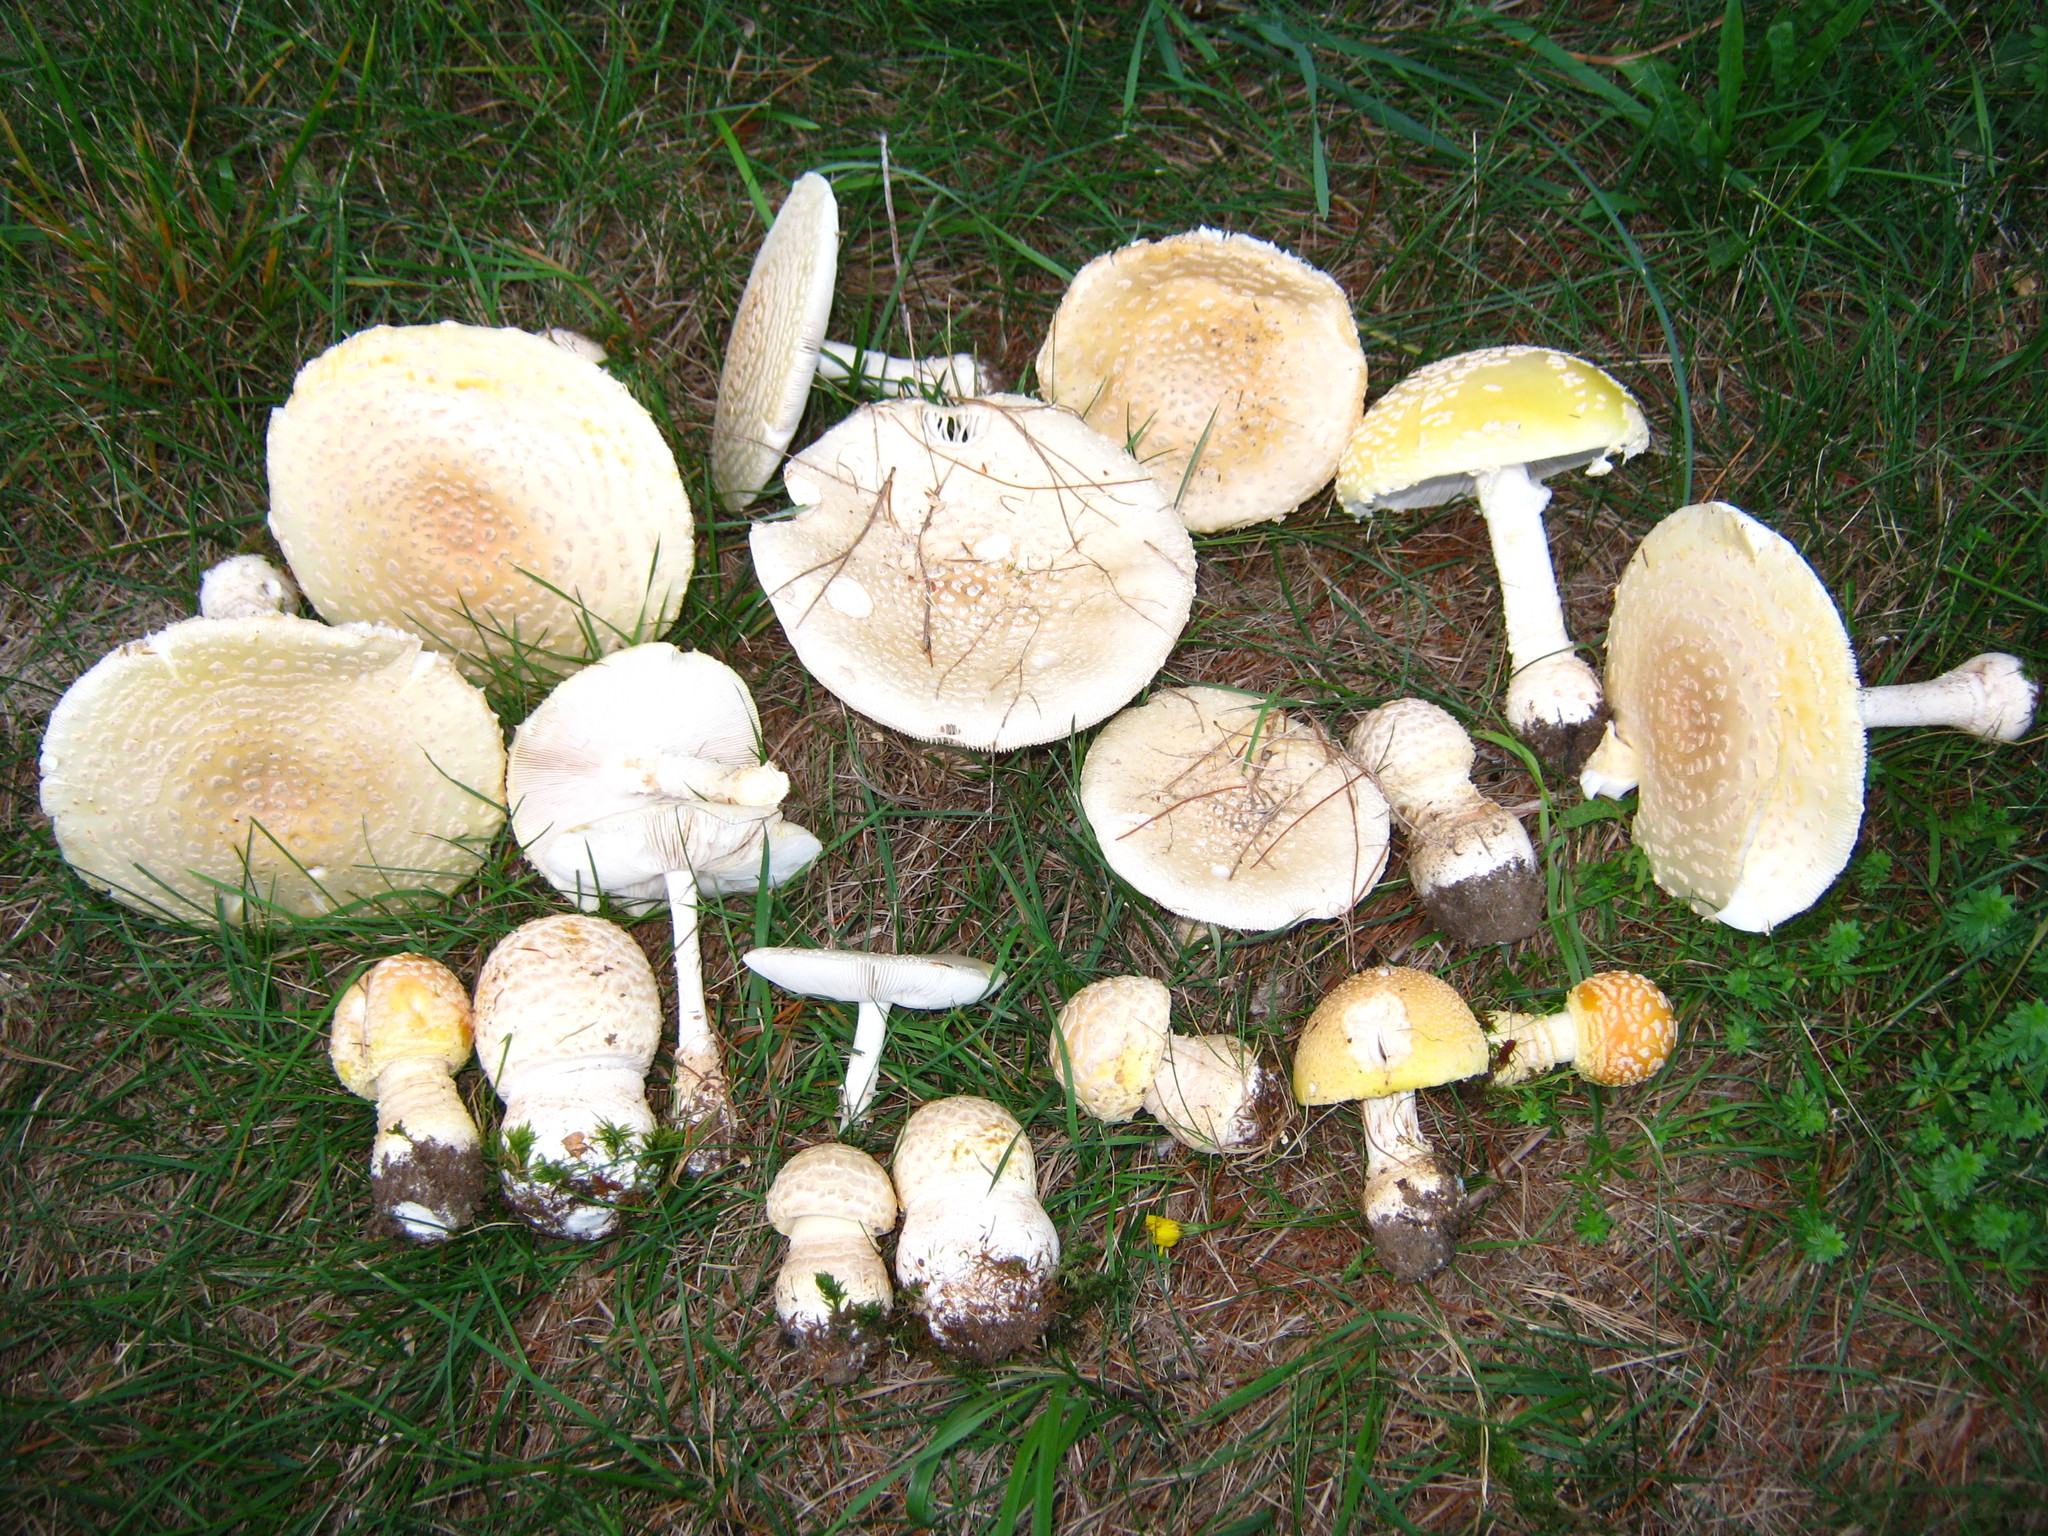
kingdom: Fungi
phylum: Basidiomycota
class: Agaricomycetes
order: Agaricales
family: Amanitaceae
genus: Amanita
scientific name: Amanita muscaria
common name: Fly agaric
